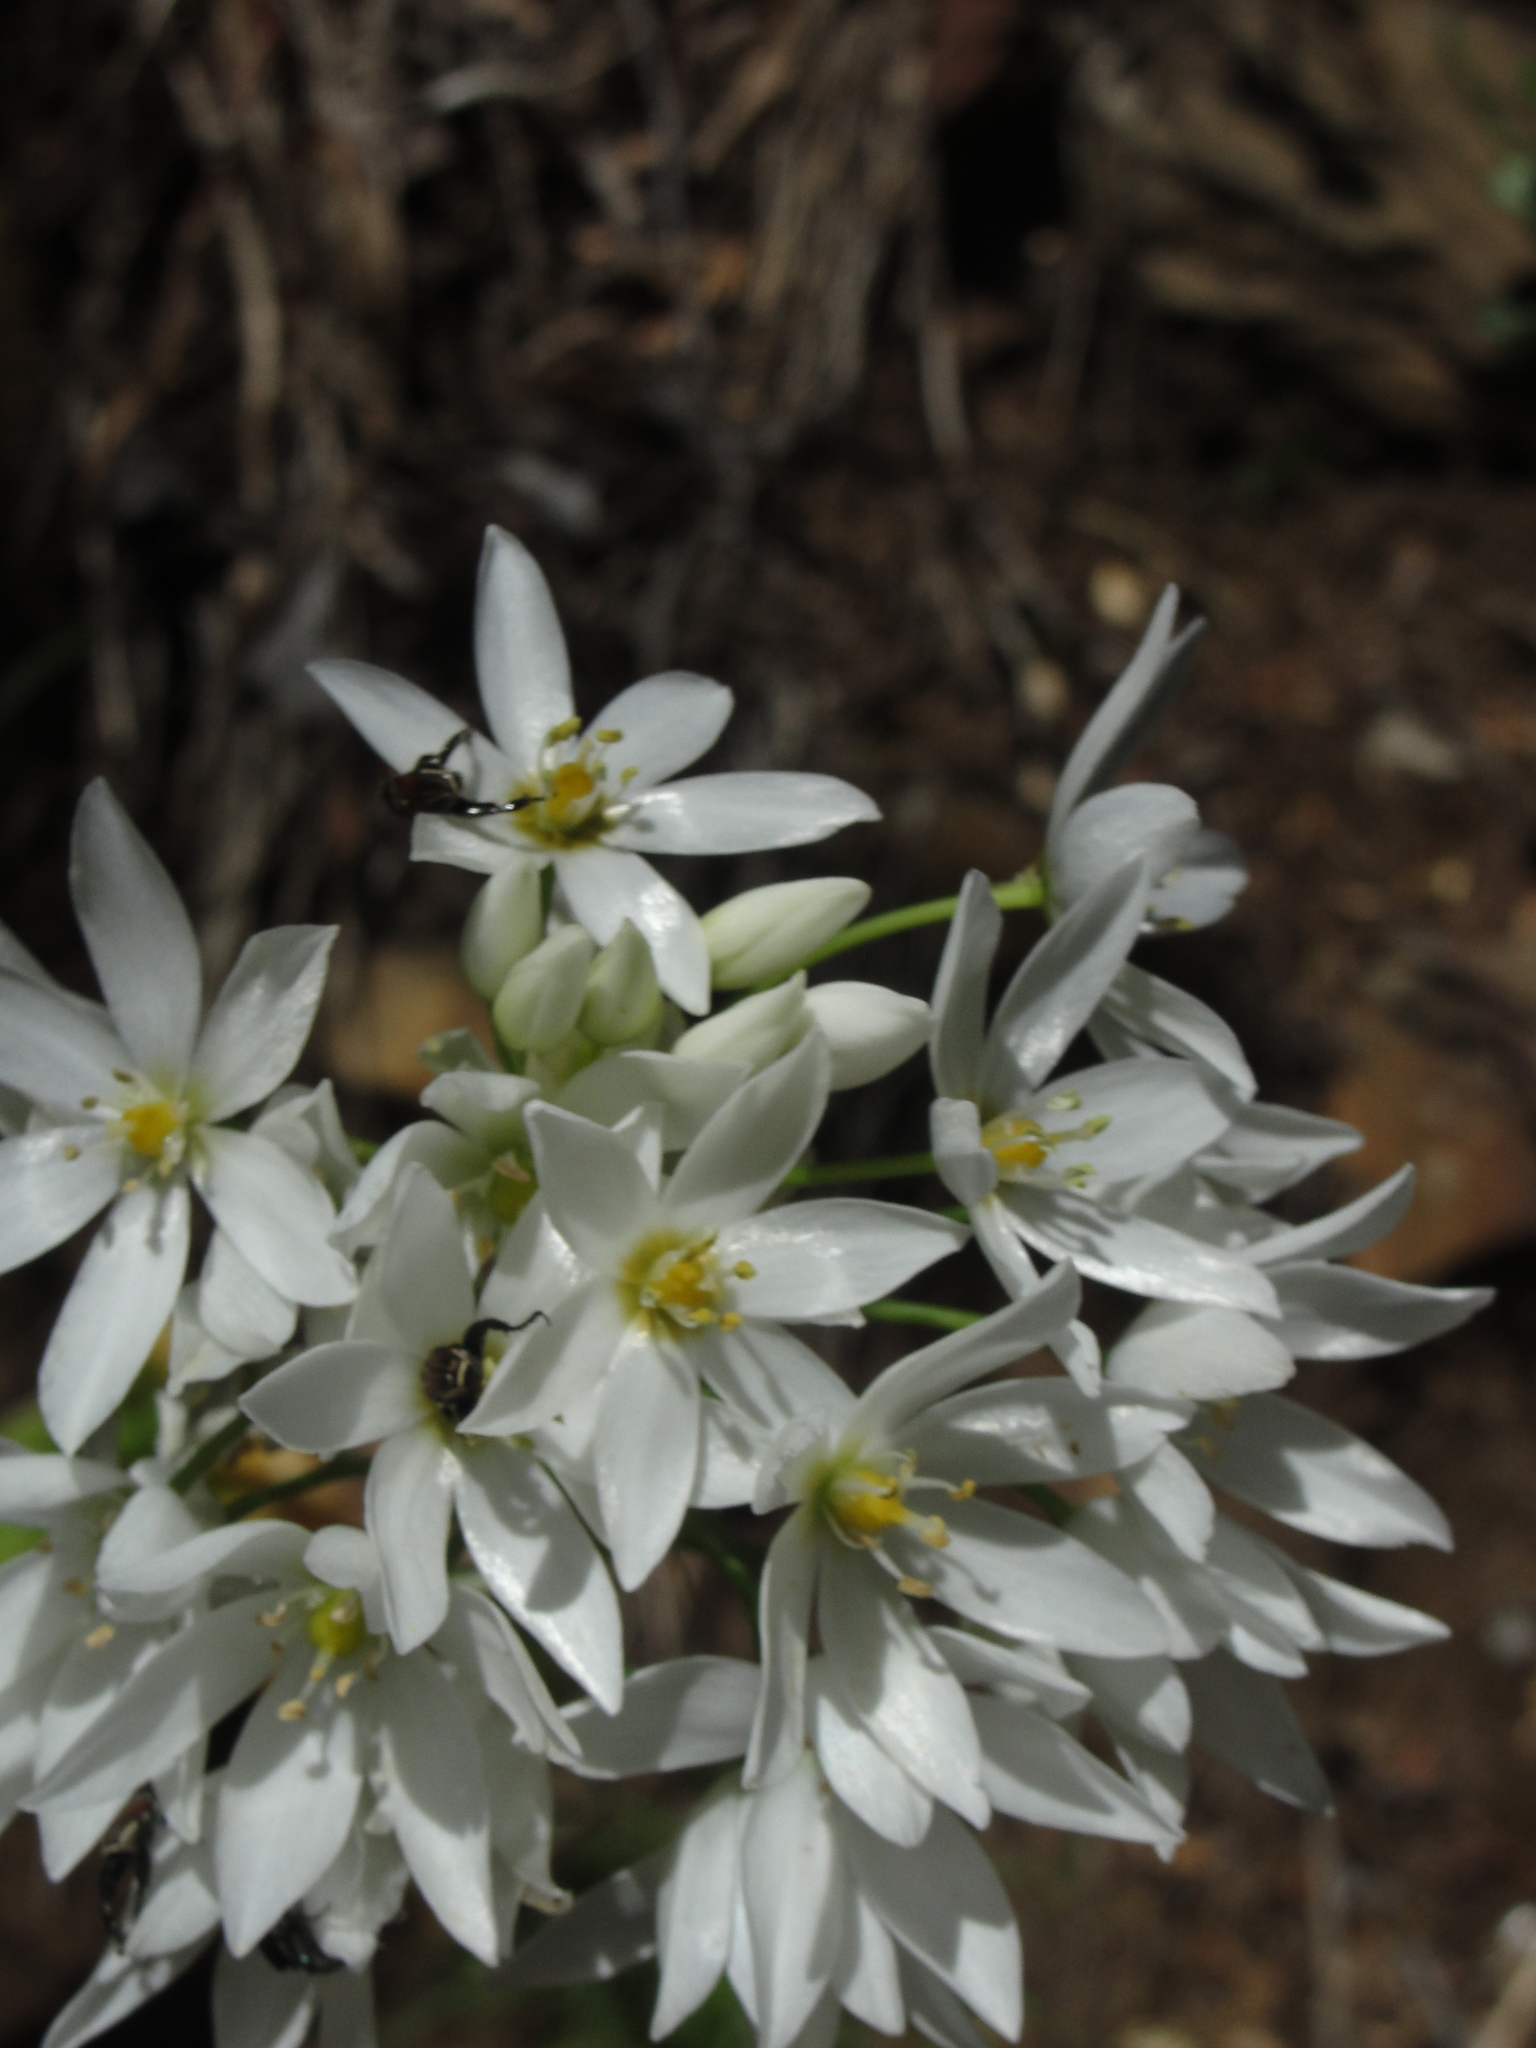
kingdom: Plantae
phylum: Tracheophyta
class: Liliopsida
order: Asparagales
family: Asparagaceae
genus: Ornithogalum
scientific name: Ornithogalum thyrsoides
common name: Chincherinchee
